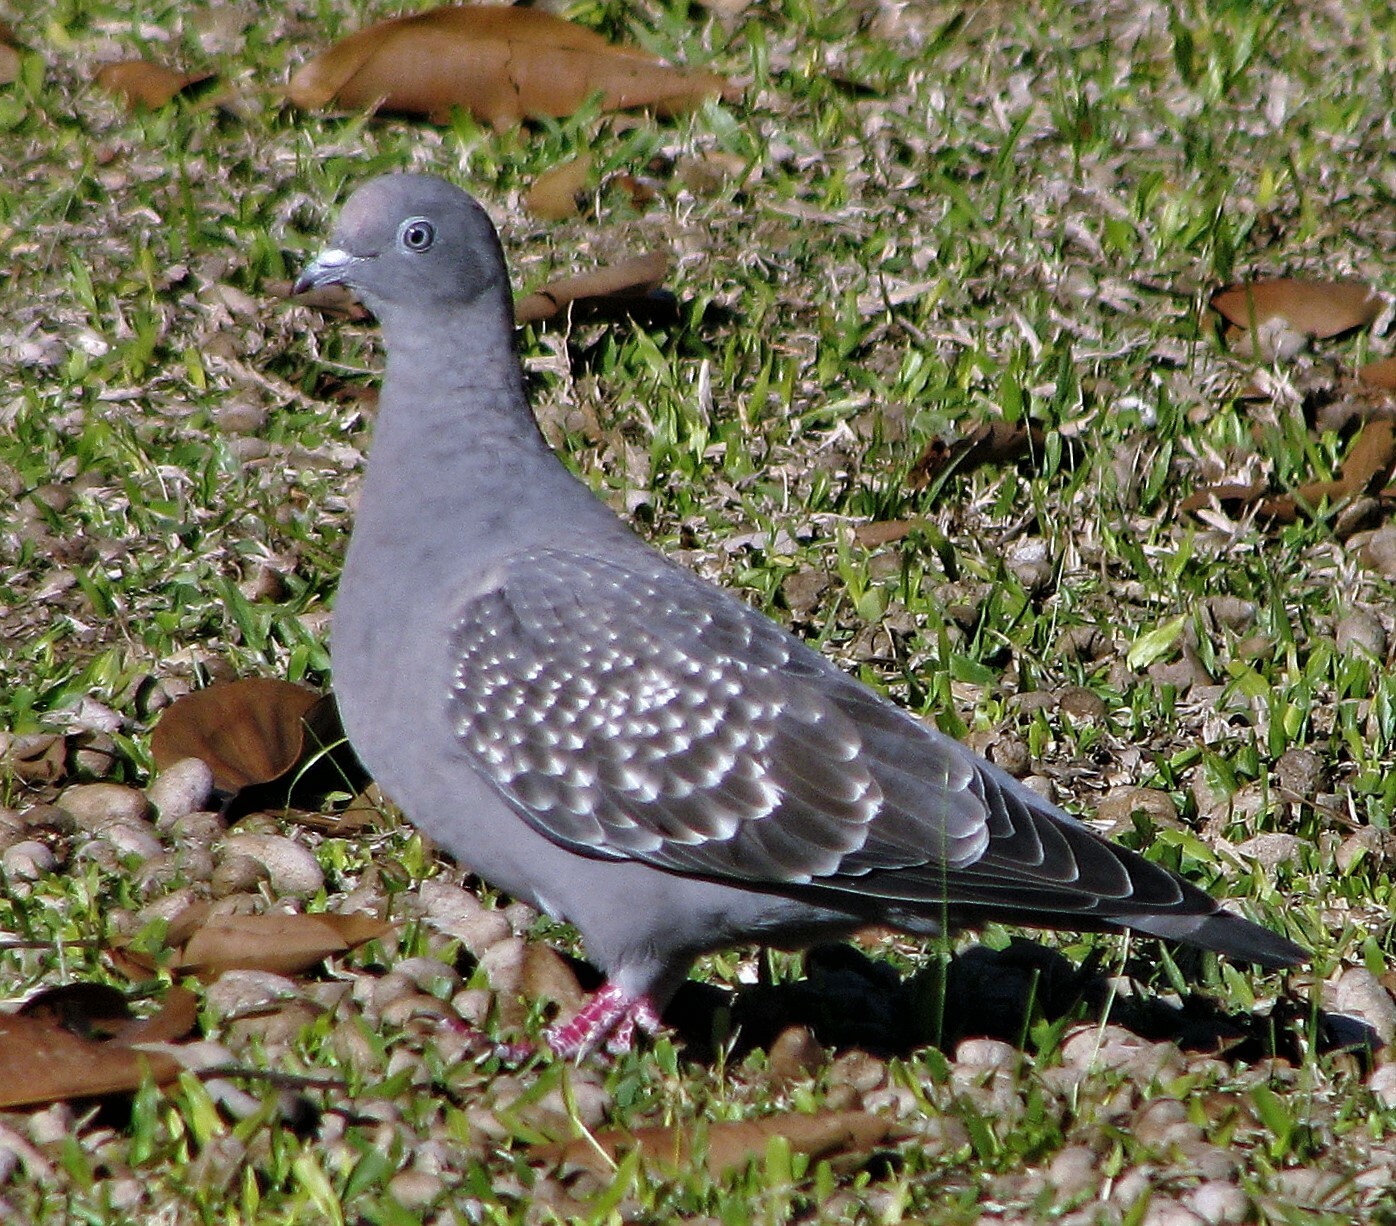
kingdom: Animalia
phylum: Chordata
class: Aves
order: Columbiformes
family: Columbidae
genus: Patagioenas
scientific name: Patagioenas maculosa
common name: Spot-winged pigeon
